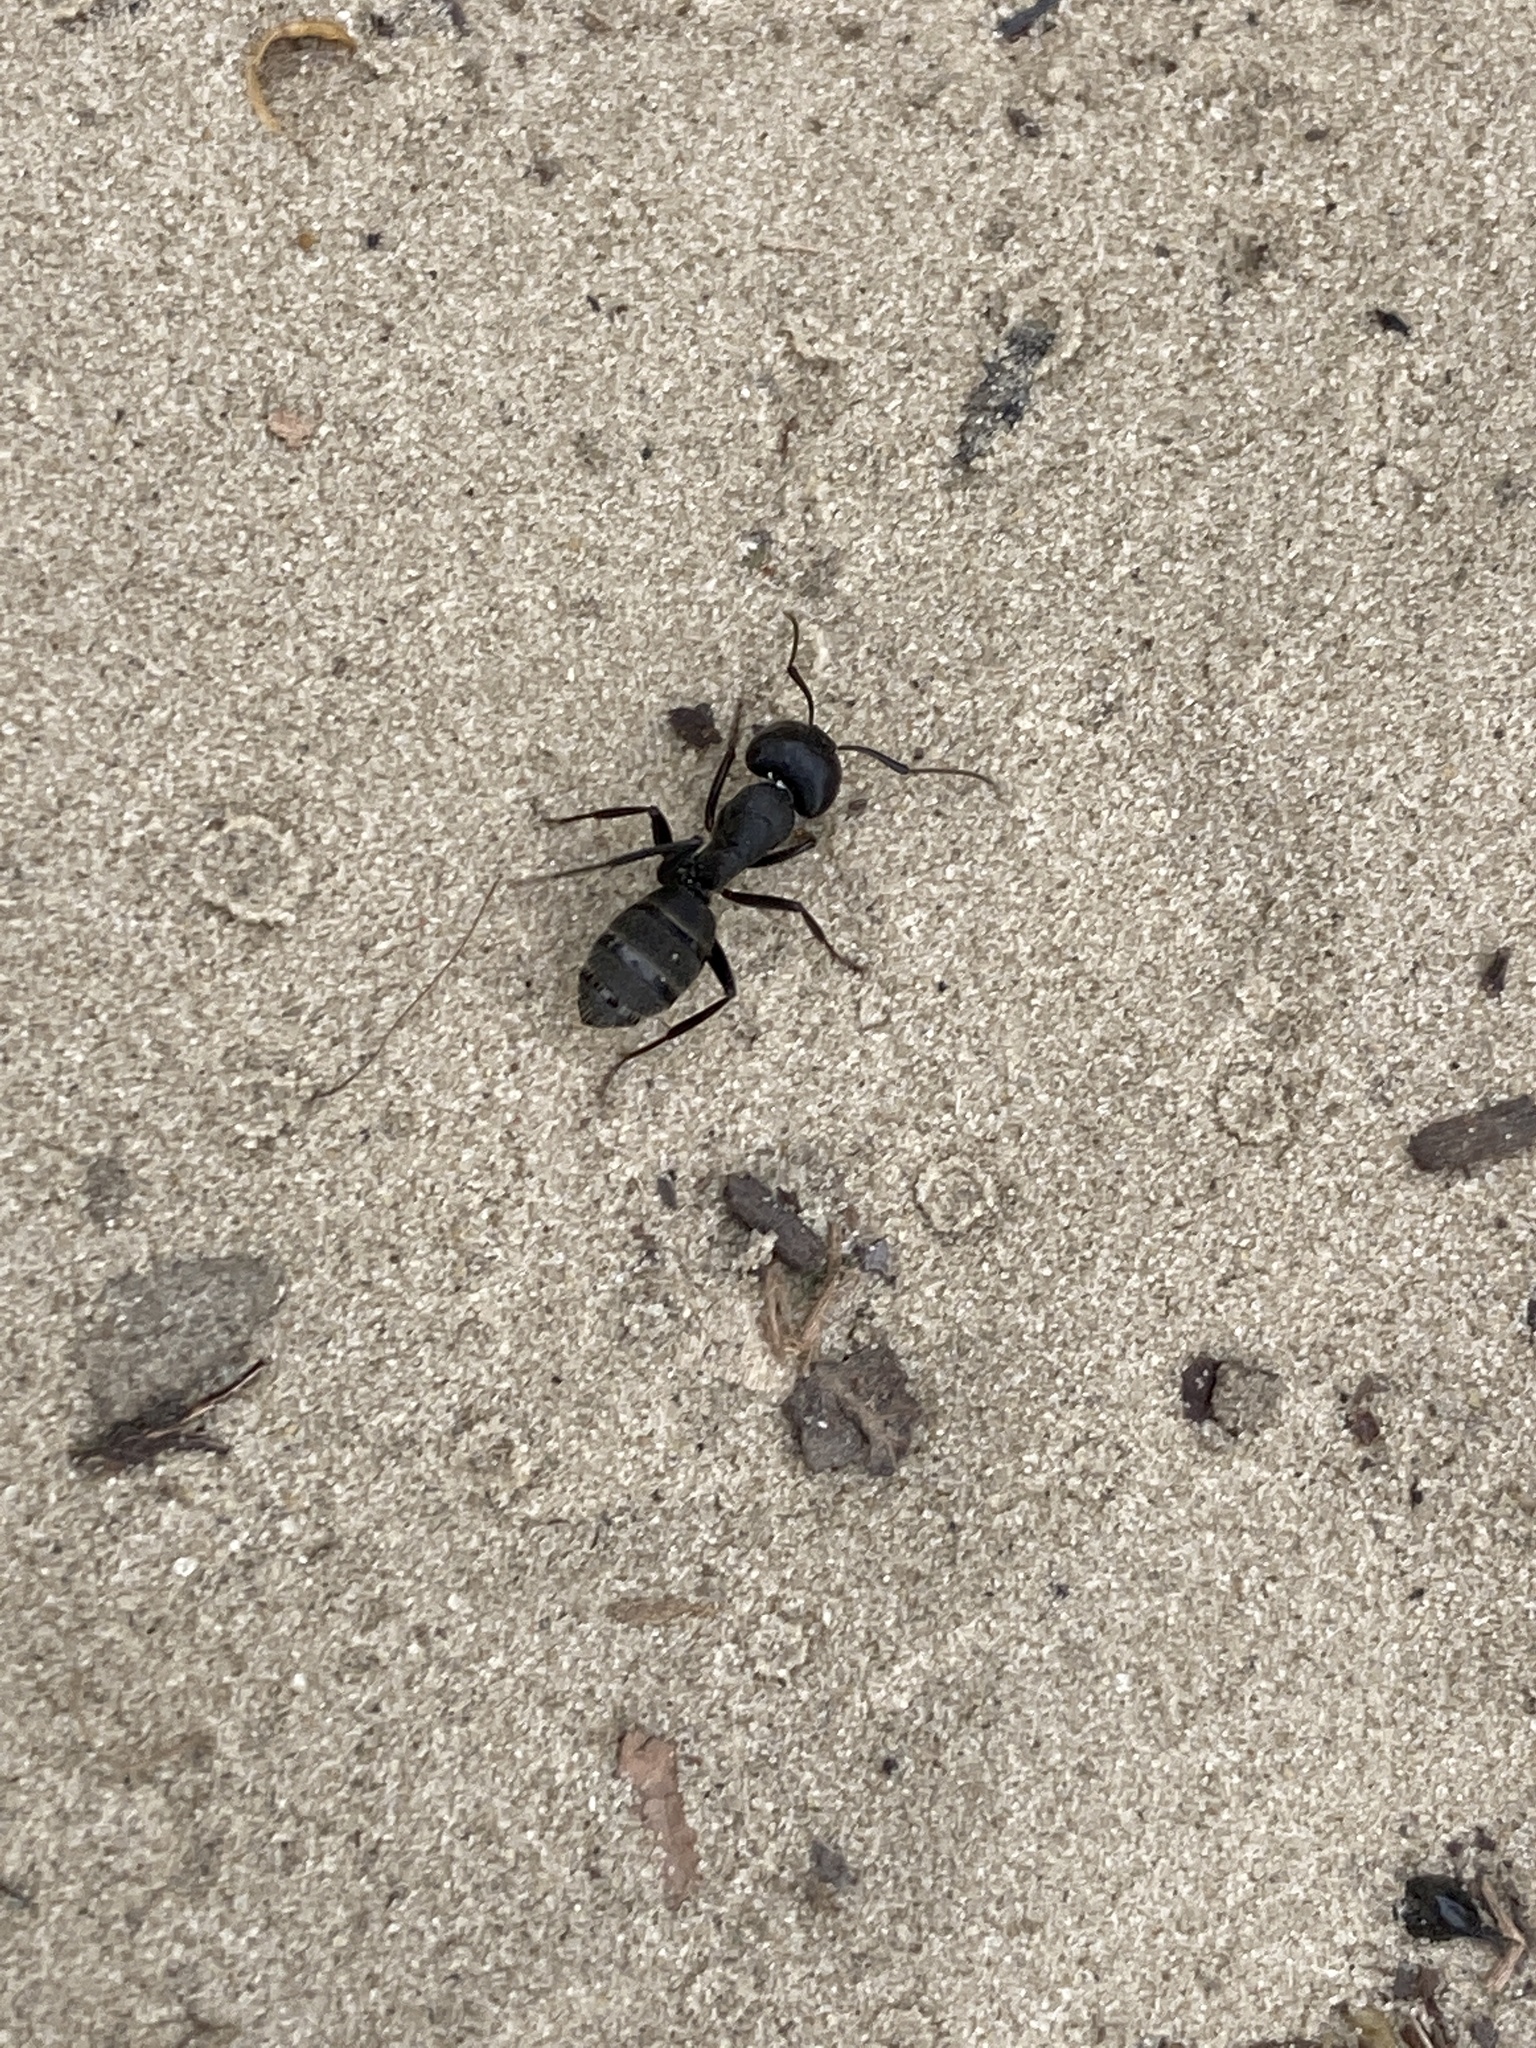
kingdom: Animalia
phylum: Arthropoda
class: Insecta
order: Hymenoptera
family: Formicidae
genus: Camponotus
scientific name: Camponotus vagus
